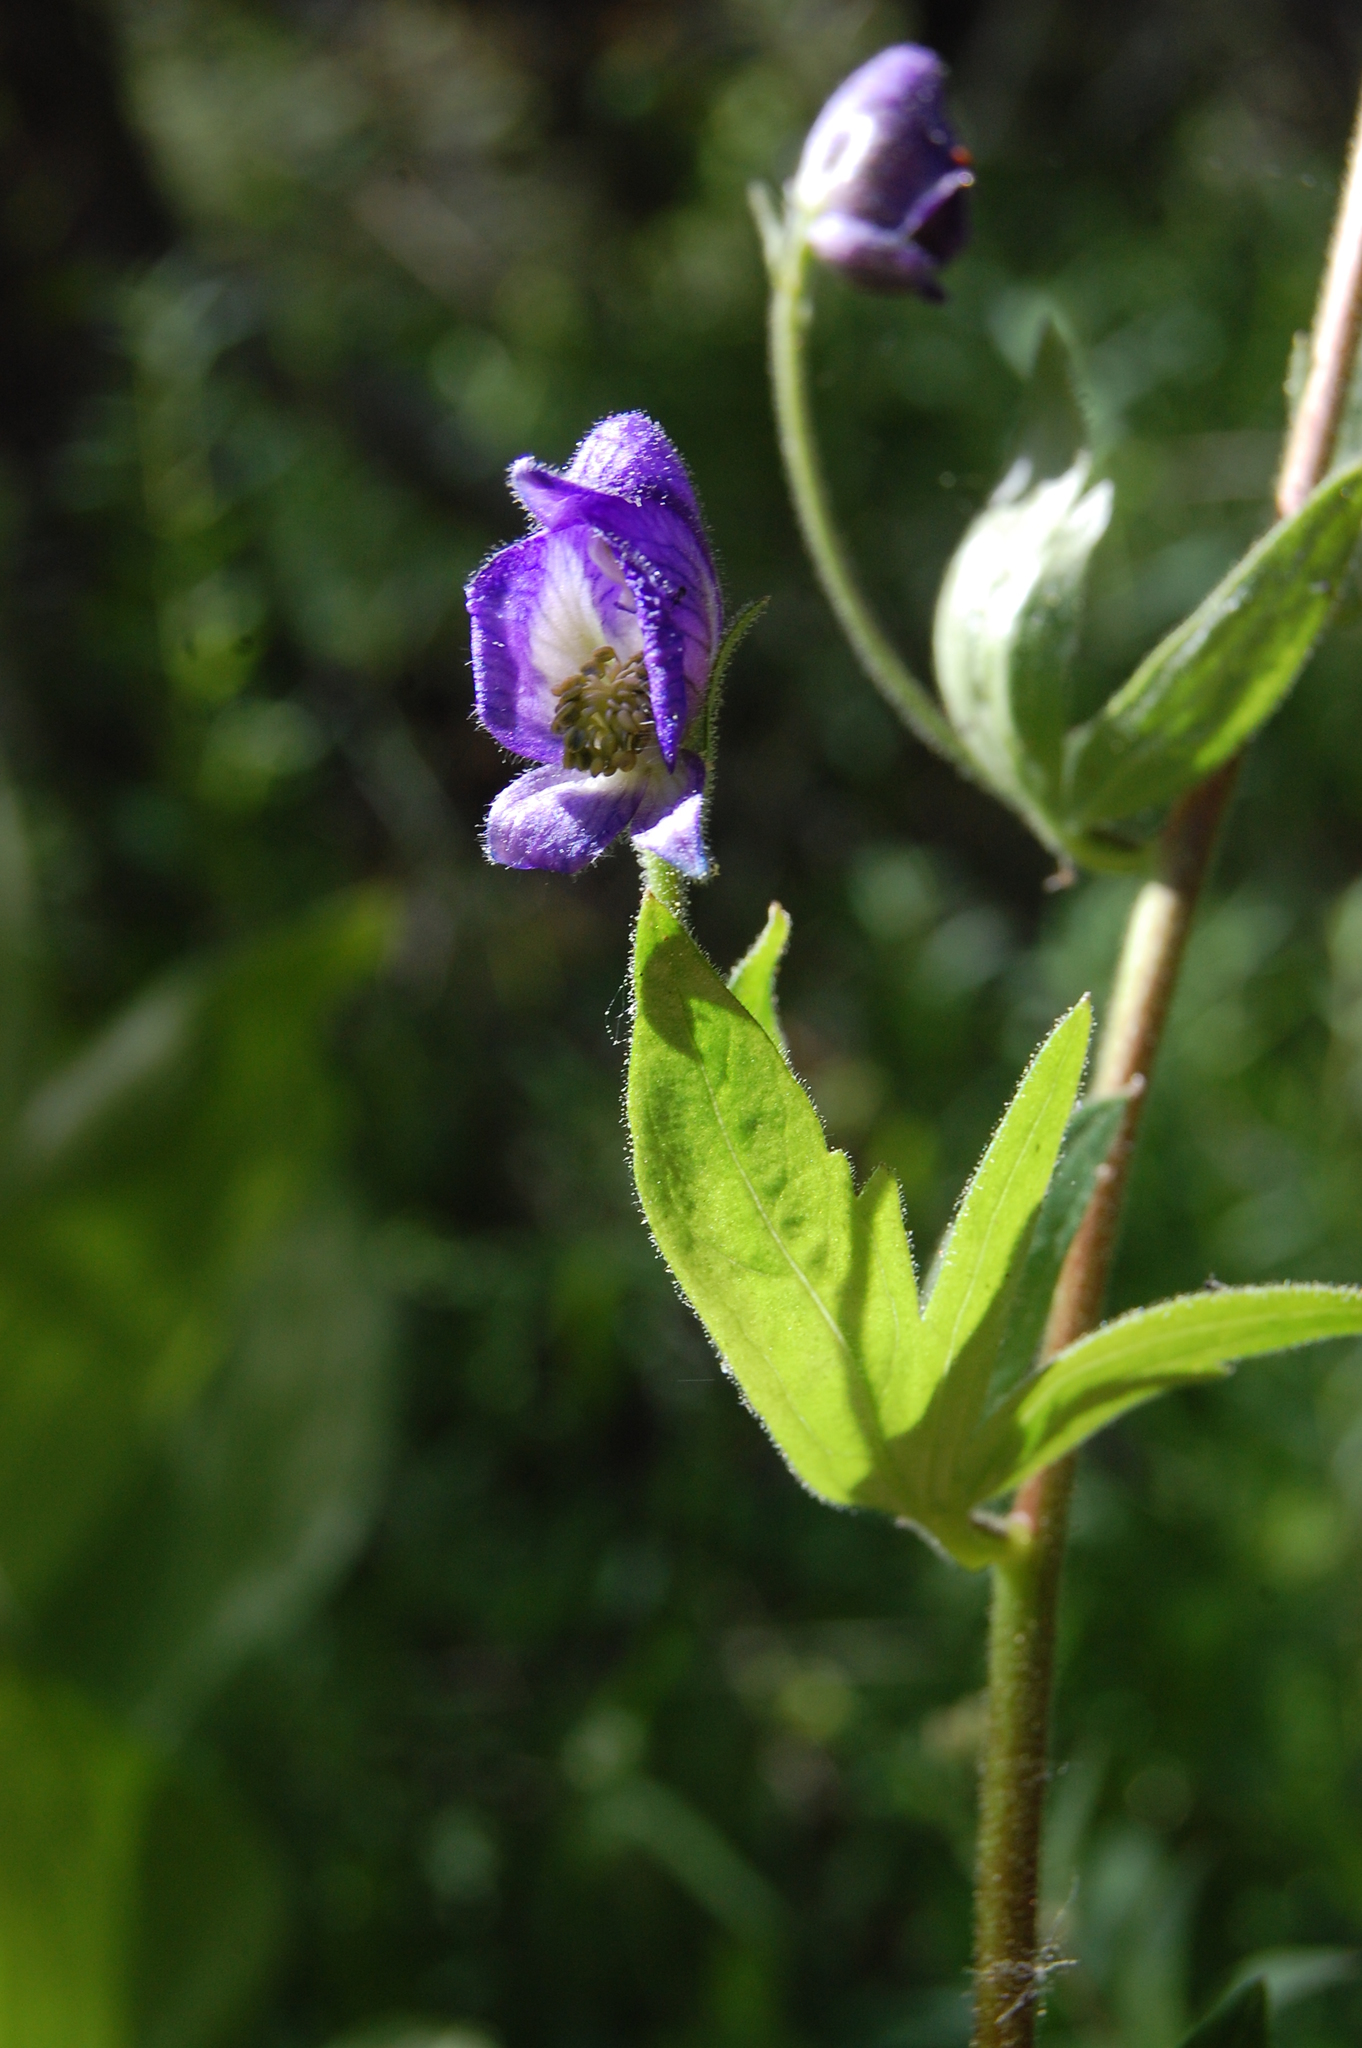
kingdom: Plantae
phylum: Tracheophyta
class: Magnoliopsida
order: Ranunculales
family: Ranunculaceae
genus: Aconitum
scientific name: Aconitum columbianum
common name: Columbia aconite
